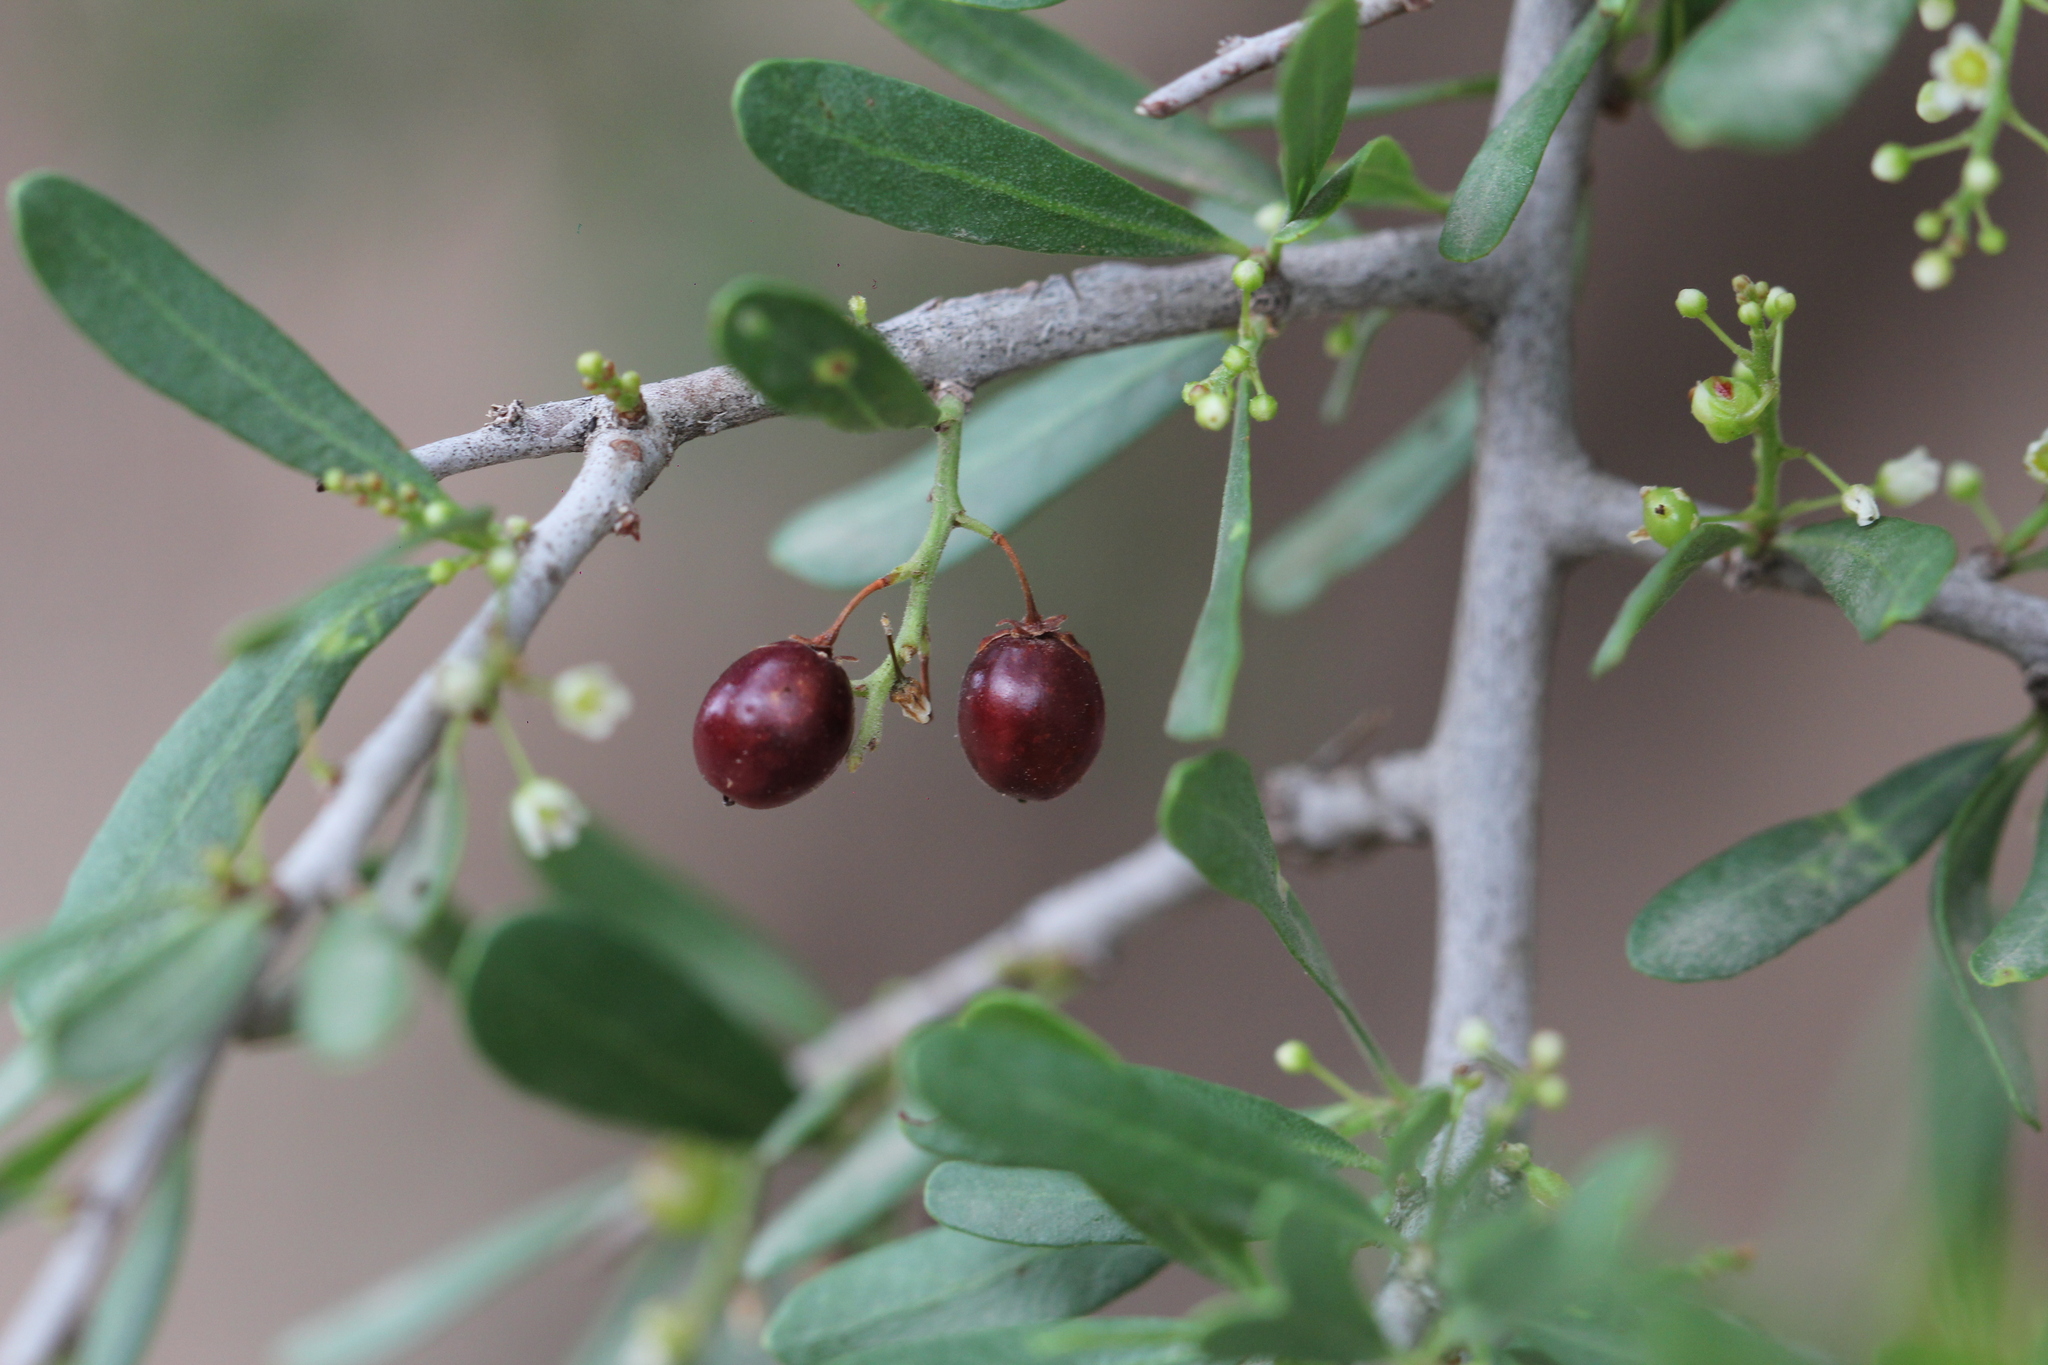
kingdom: Plantae
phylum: Tracheophyta
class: Magnoliopsida
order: Sapindales
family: Anacardiaceae
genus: Schinus
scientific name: Schinus fasciculata
